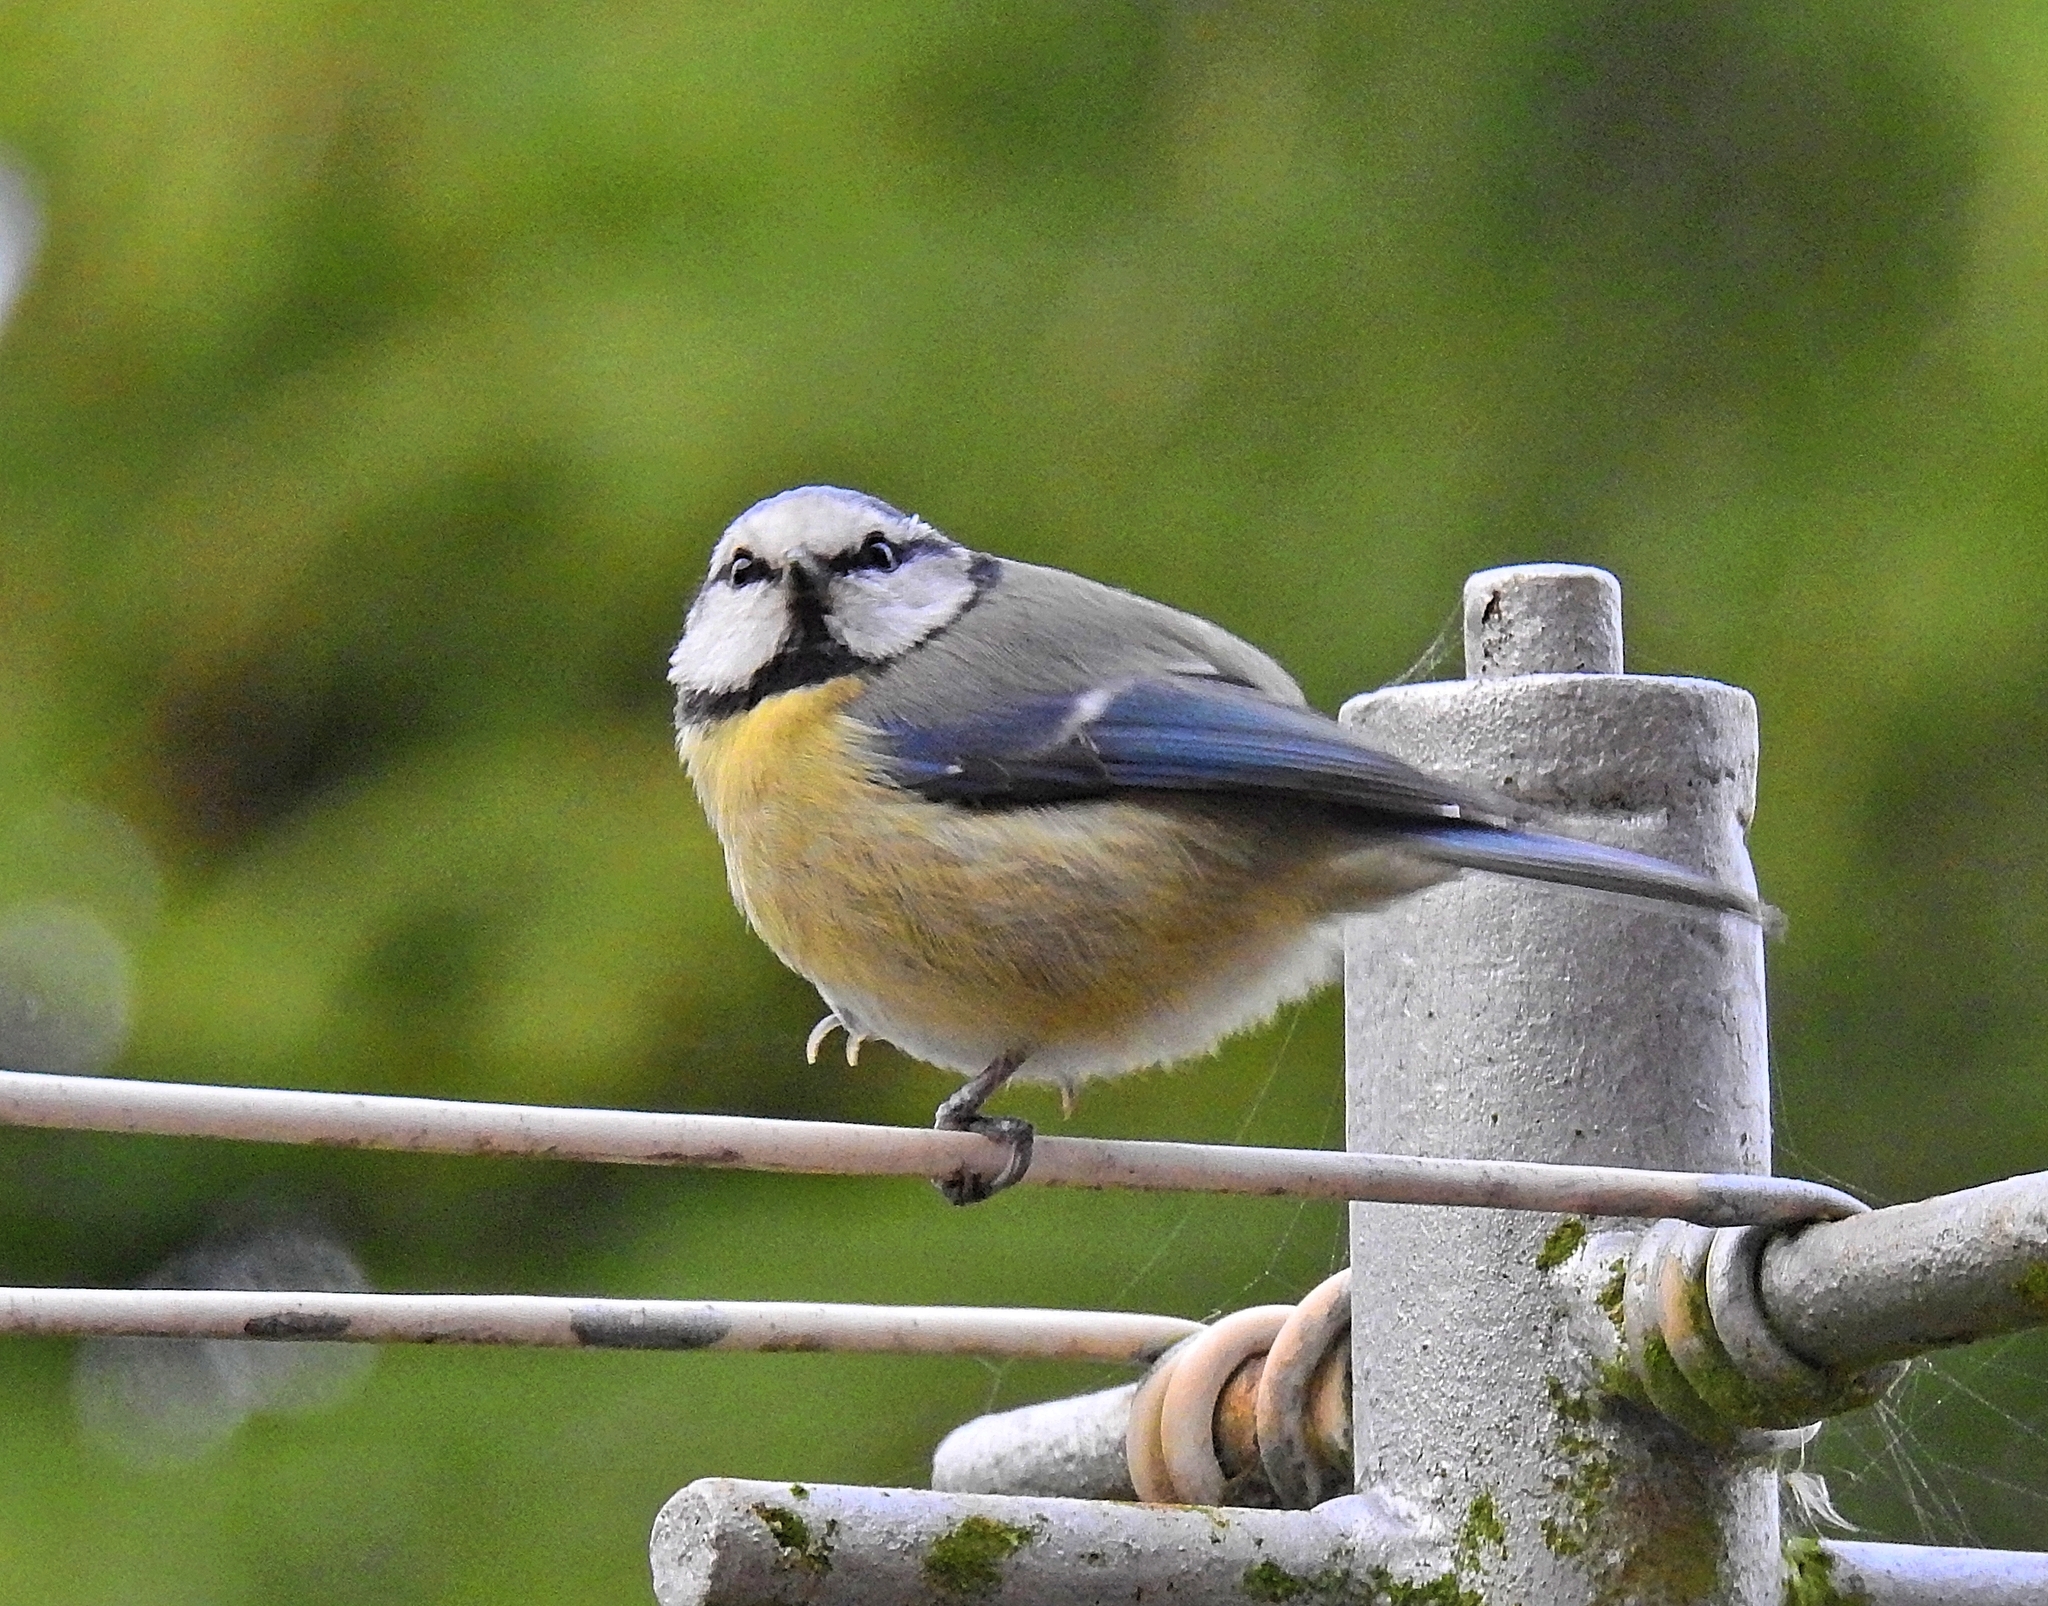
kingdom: Animalia
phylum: Chordata
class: Aves
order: Passeriformes
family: Paridae
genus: Cyanistes
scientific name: Cyanistes caeruleus
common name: Eurasian blue tit
